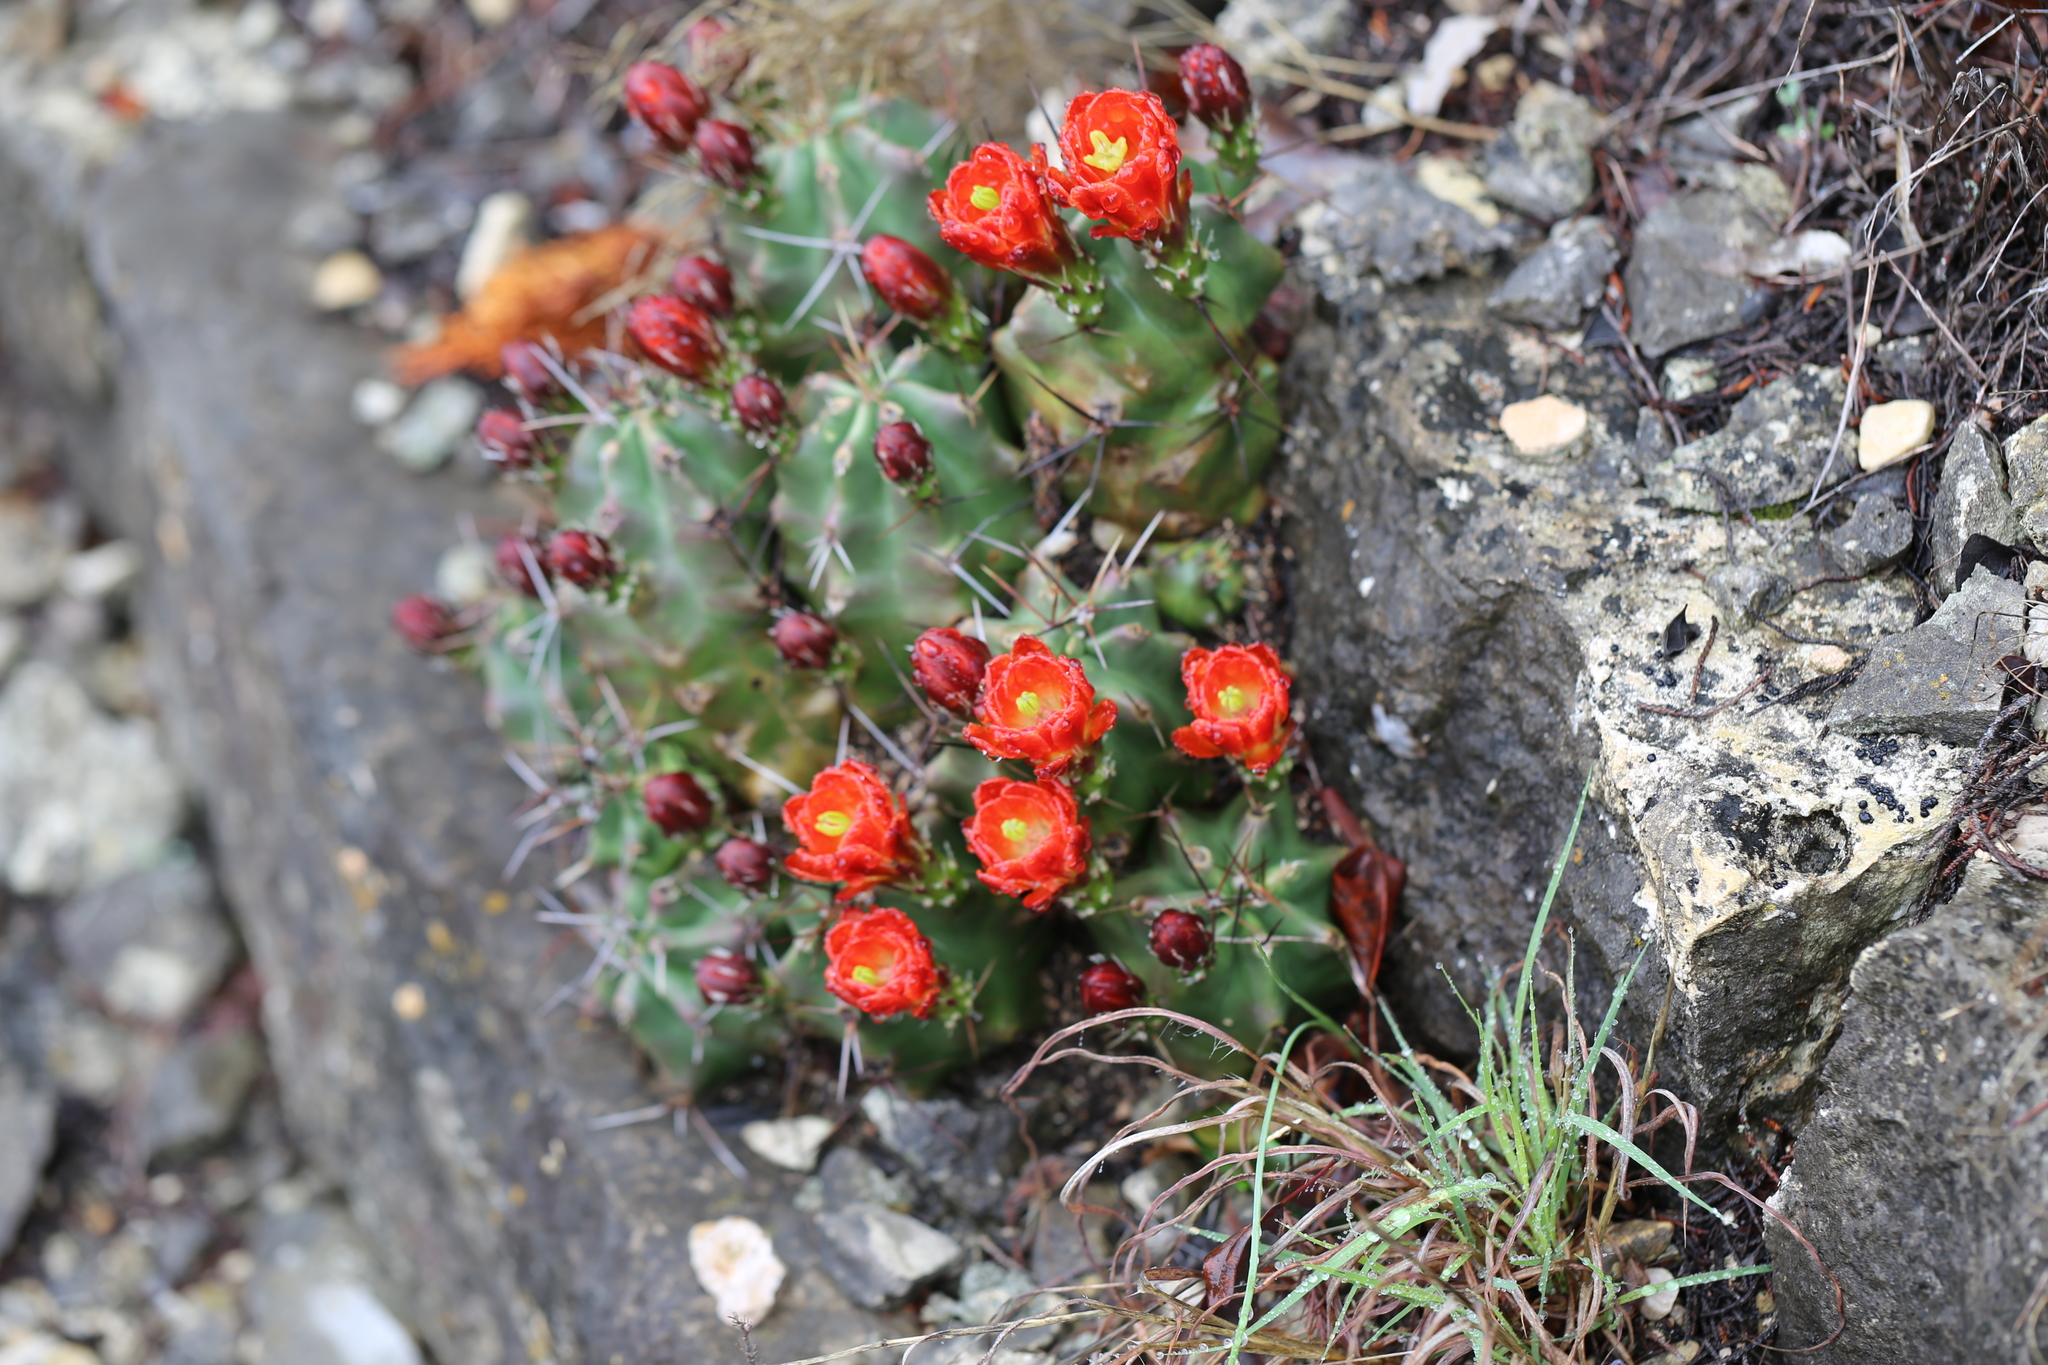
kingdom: Plantae
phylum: Tracheophyta
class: Magnoliopsida
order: Caryophyllales
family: Cactaceae
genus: Echinocereus
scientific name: Echinocereus coccineus
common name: Scarlet hedgehog cactus
